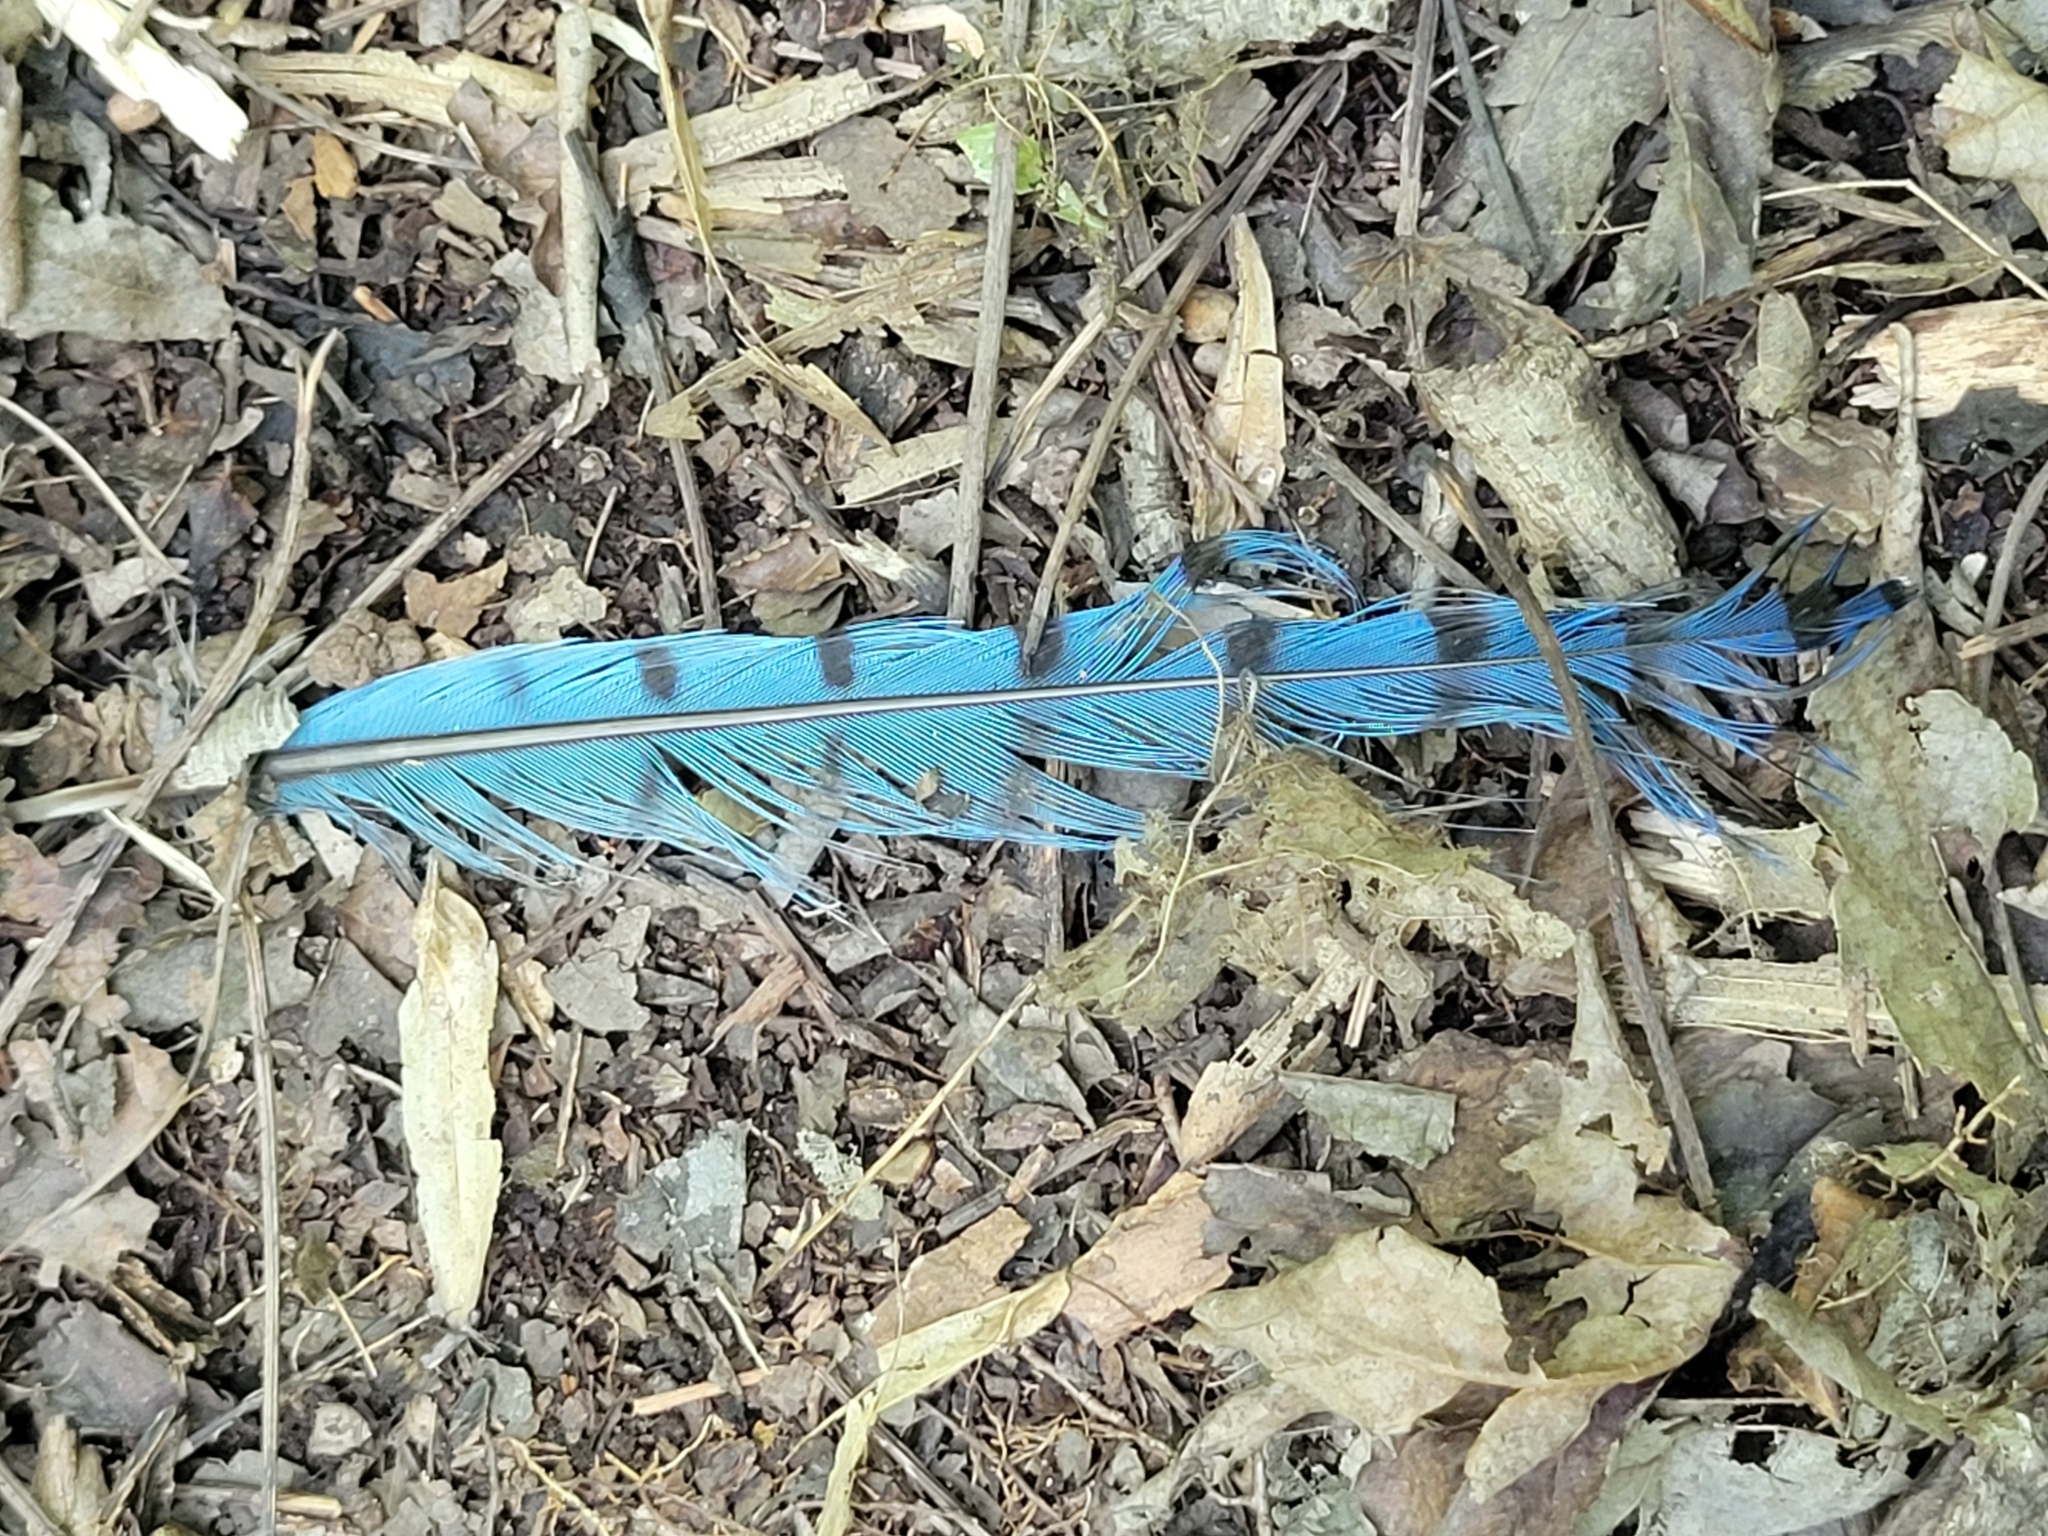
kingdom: Animalia
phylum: Chordata
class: Aves
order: Passeriformes
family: Corvidae
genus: Cyanocitta
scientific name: Cyanocitta cristata
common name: Blue jay
